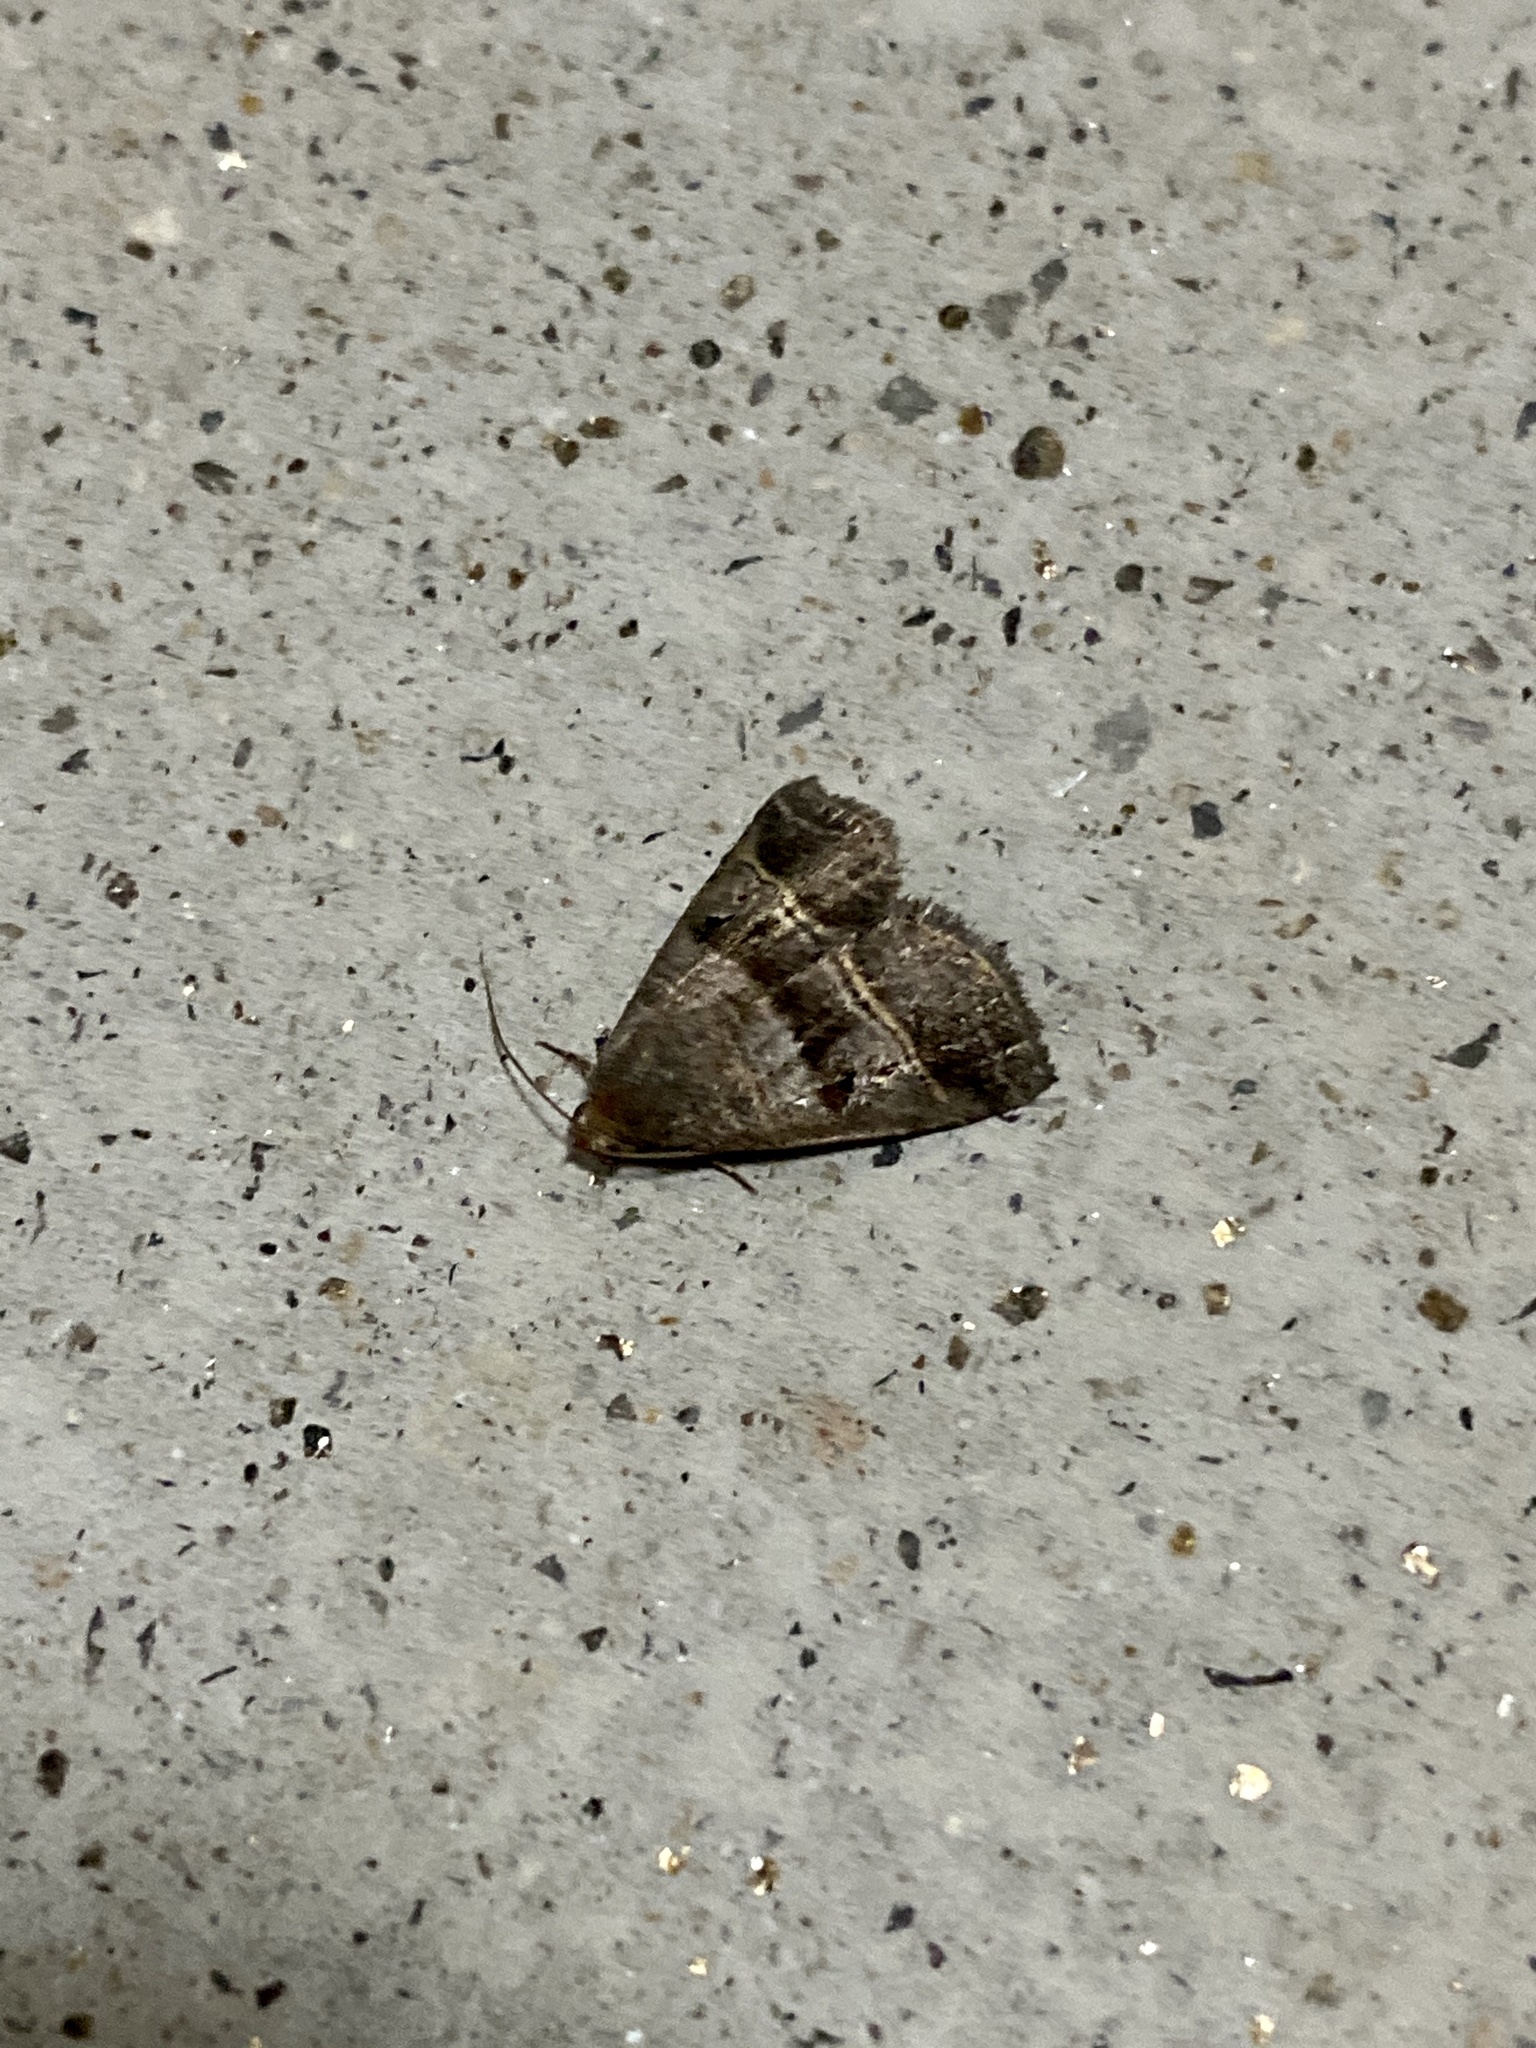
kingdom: Animalia
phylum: Arthropoda
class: Insecta
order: Lepidoptera
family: Noctuidae
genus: Ozarba
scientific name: Ozarba punctigera
